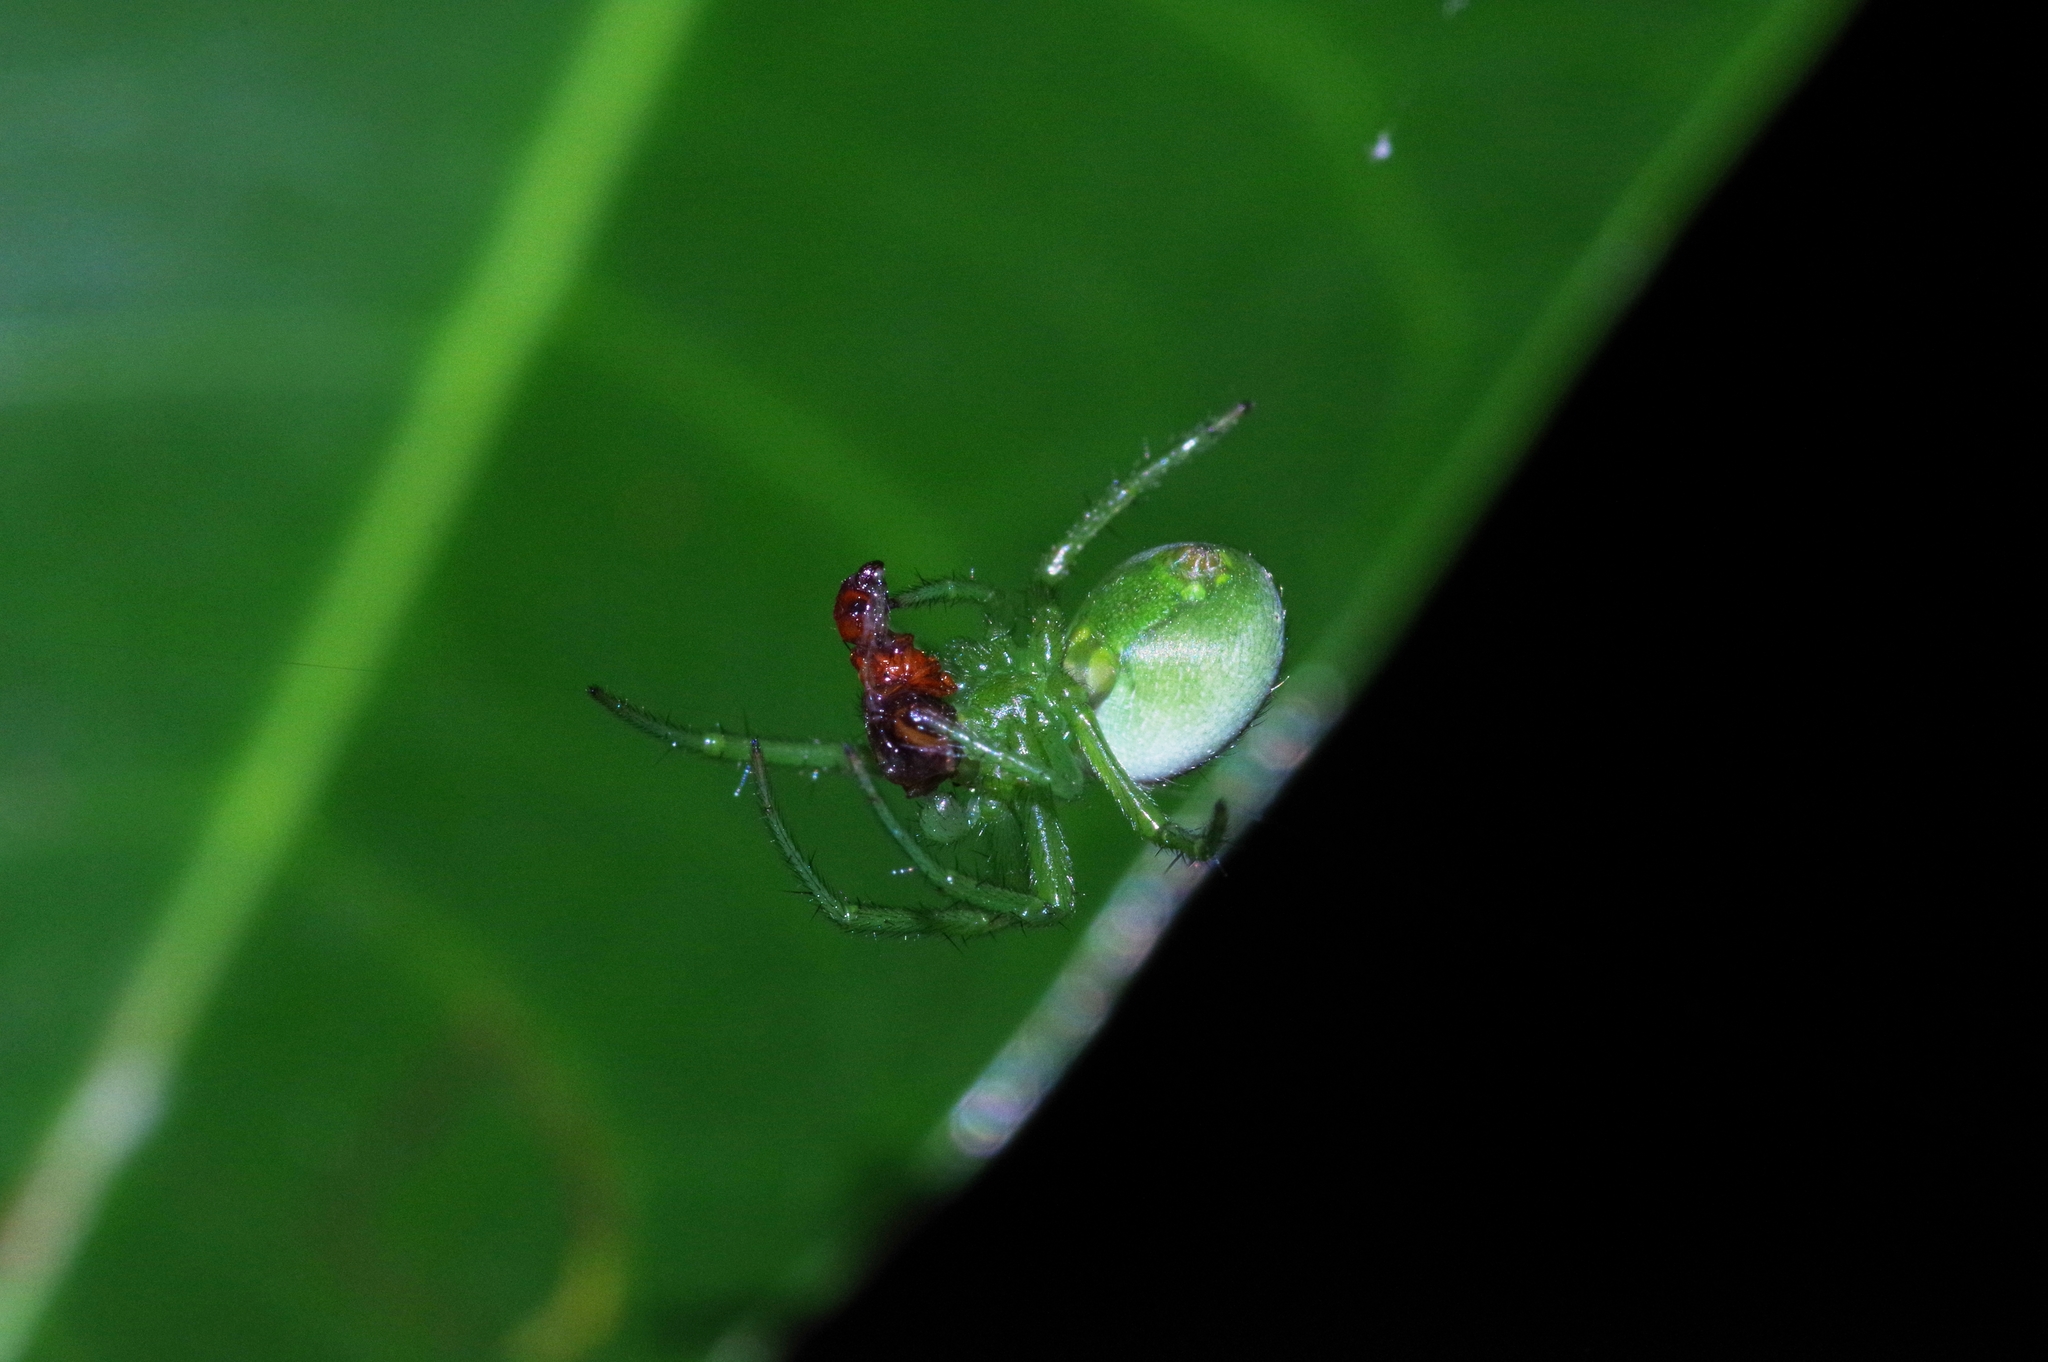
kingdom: Animalia
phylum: Arthropoda
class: Arachnida
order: Araneae
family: Araneidae
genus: Aoaraneus
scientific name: Aoaraneus amabilis
